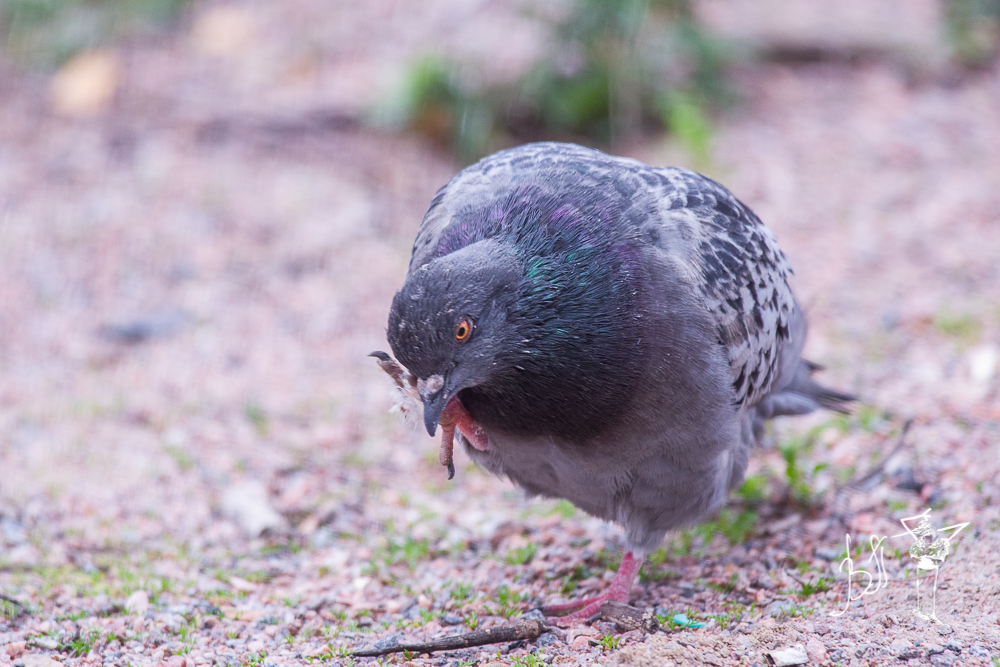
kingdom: Animalia
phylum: Chordata
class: Aves
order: Columbiformes
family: Columbidae
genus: Columba
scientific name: Columba livia
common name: Rock pigeon
